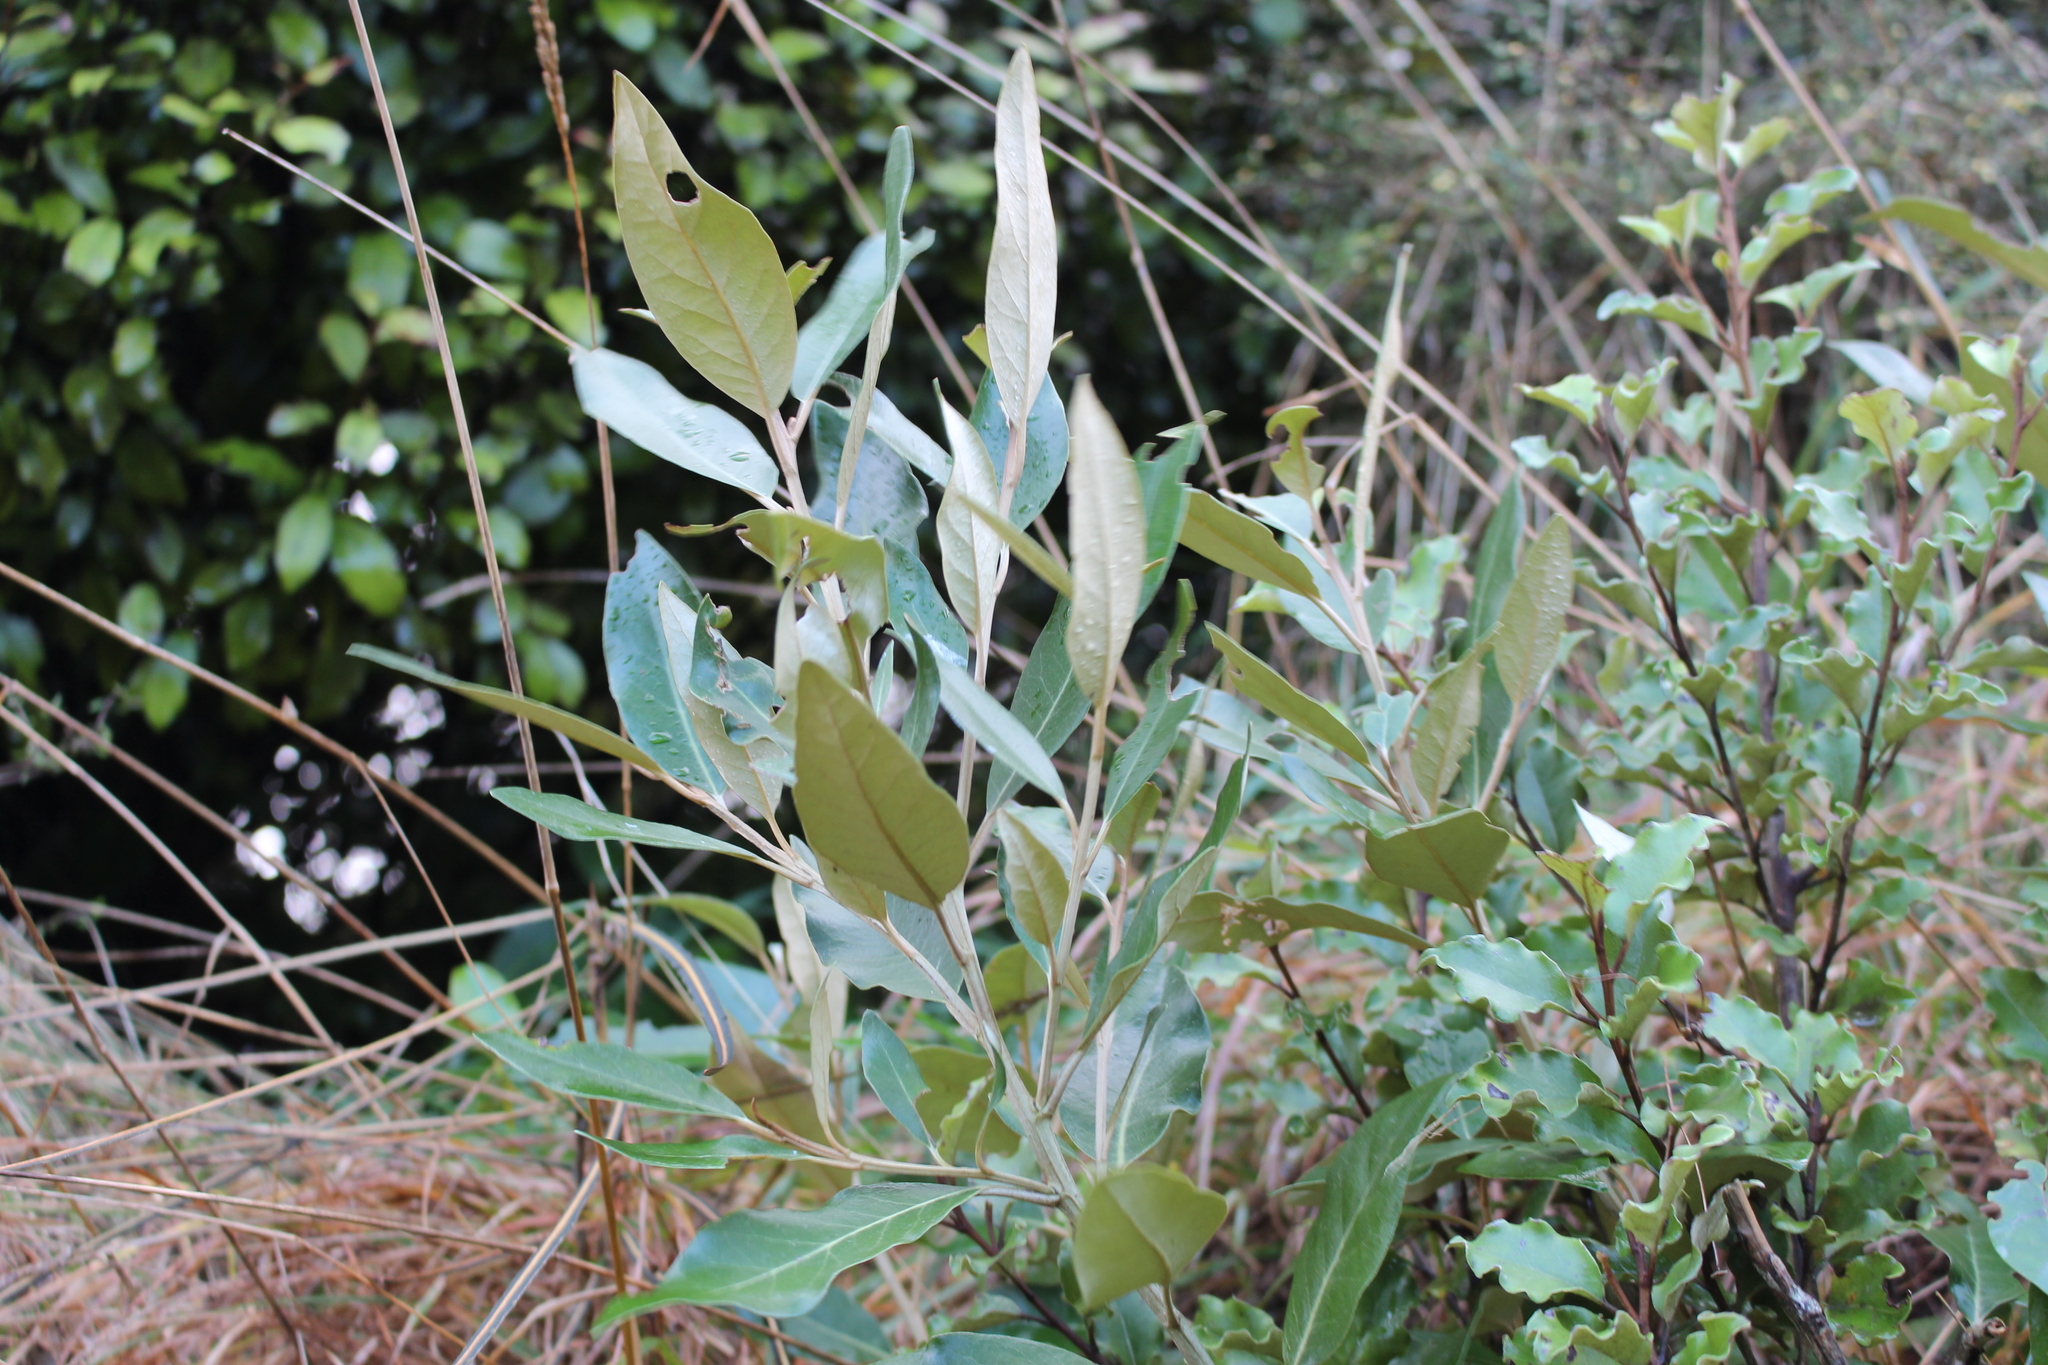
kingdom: Plantae
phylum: Tracheophyta
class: Magnoliopsida
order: Asterales
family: Asteraceae
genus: Olearia
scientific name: Olearia avicenniifolia
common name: Mangrove-leaf daisybush
